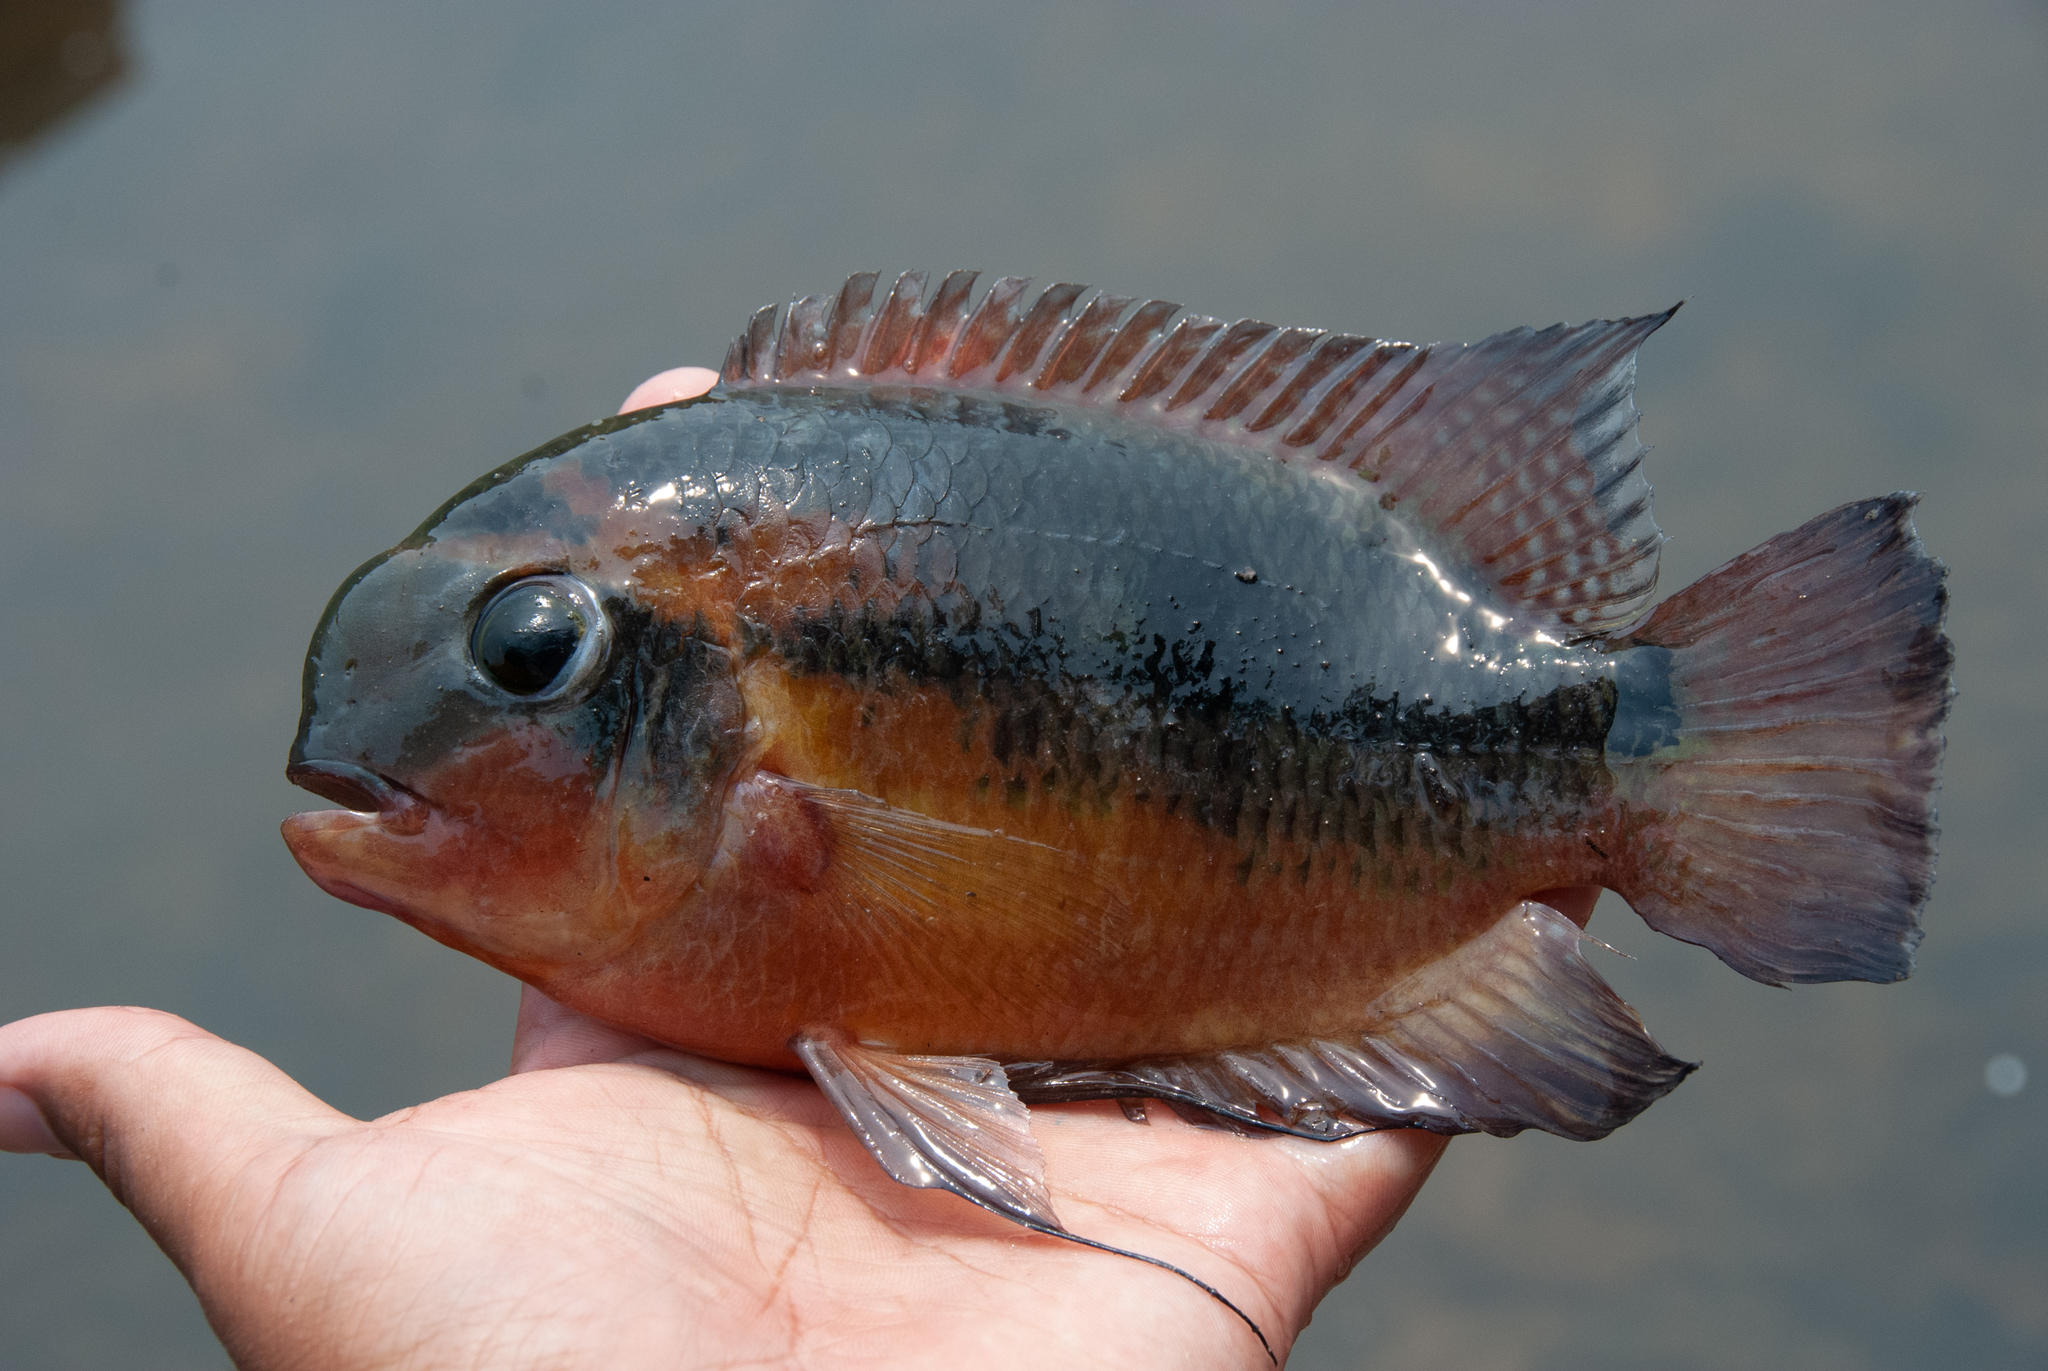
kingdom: Animalia
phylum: Chordata
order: Perciformes
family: Cichlidae
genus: Hypselecara
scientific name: Hypselecara temporalis
